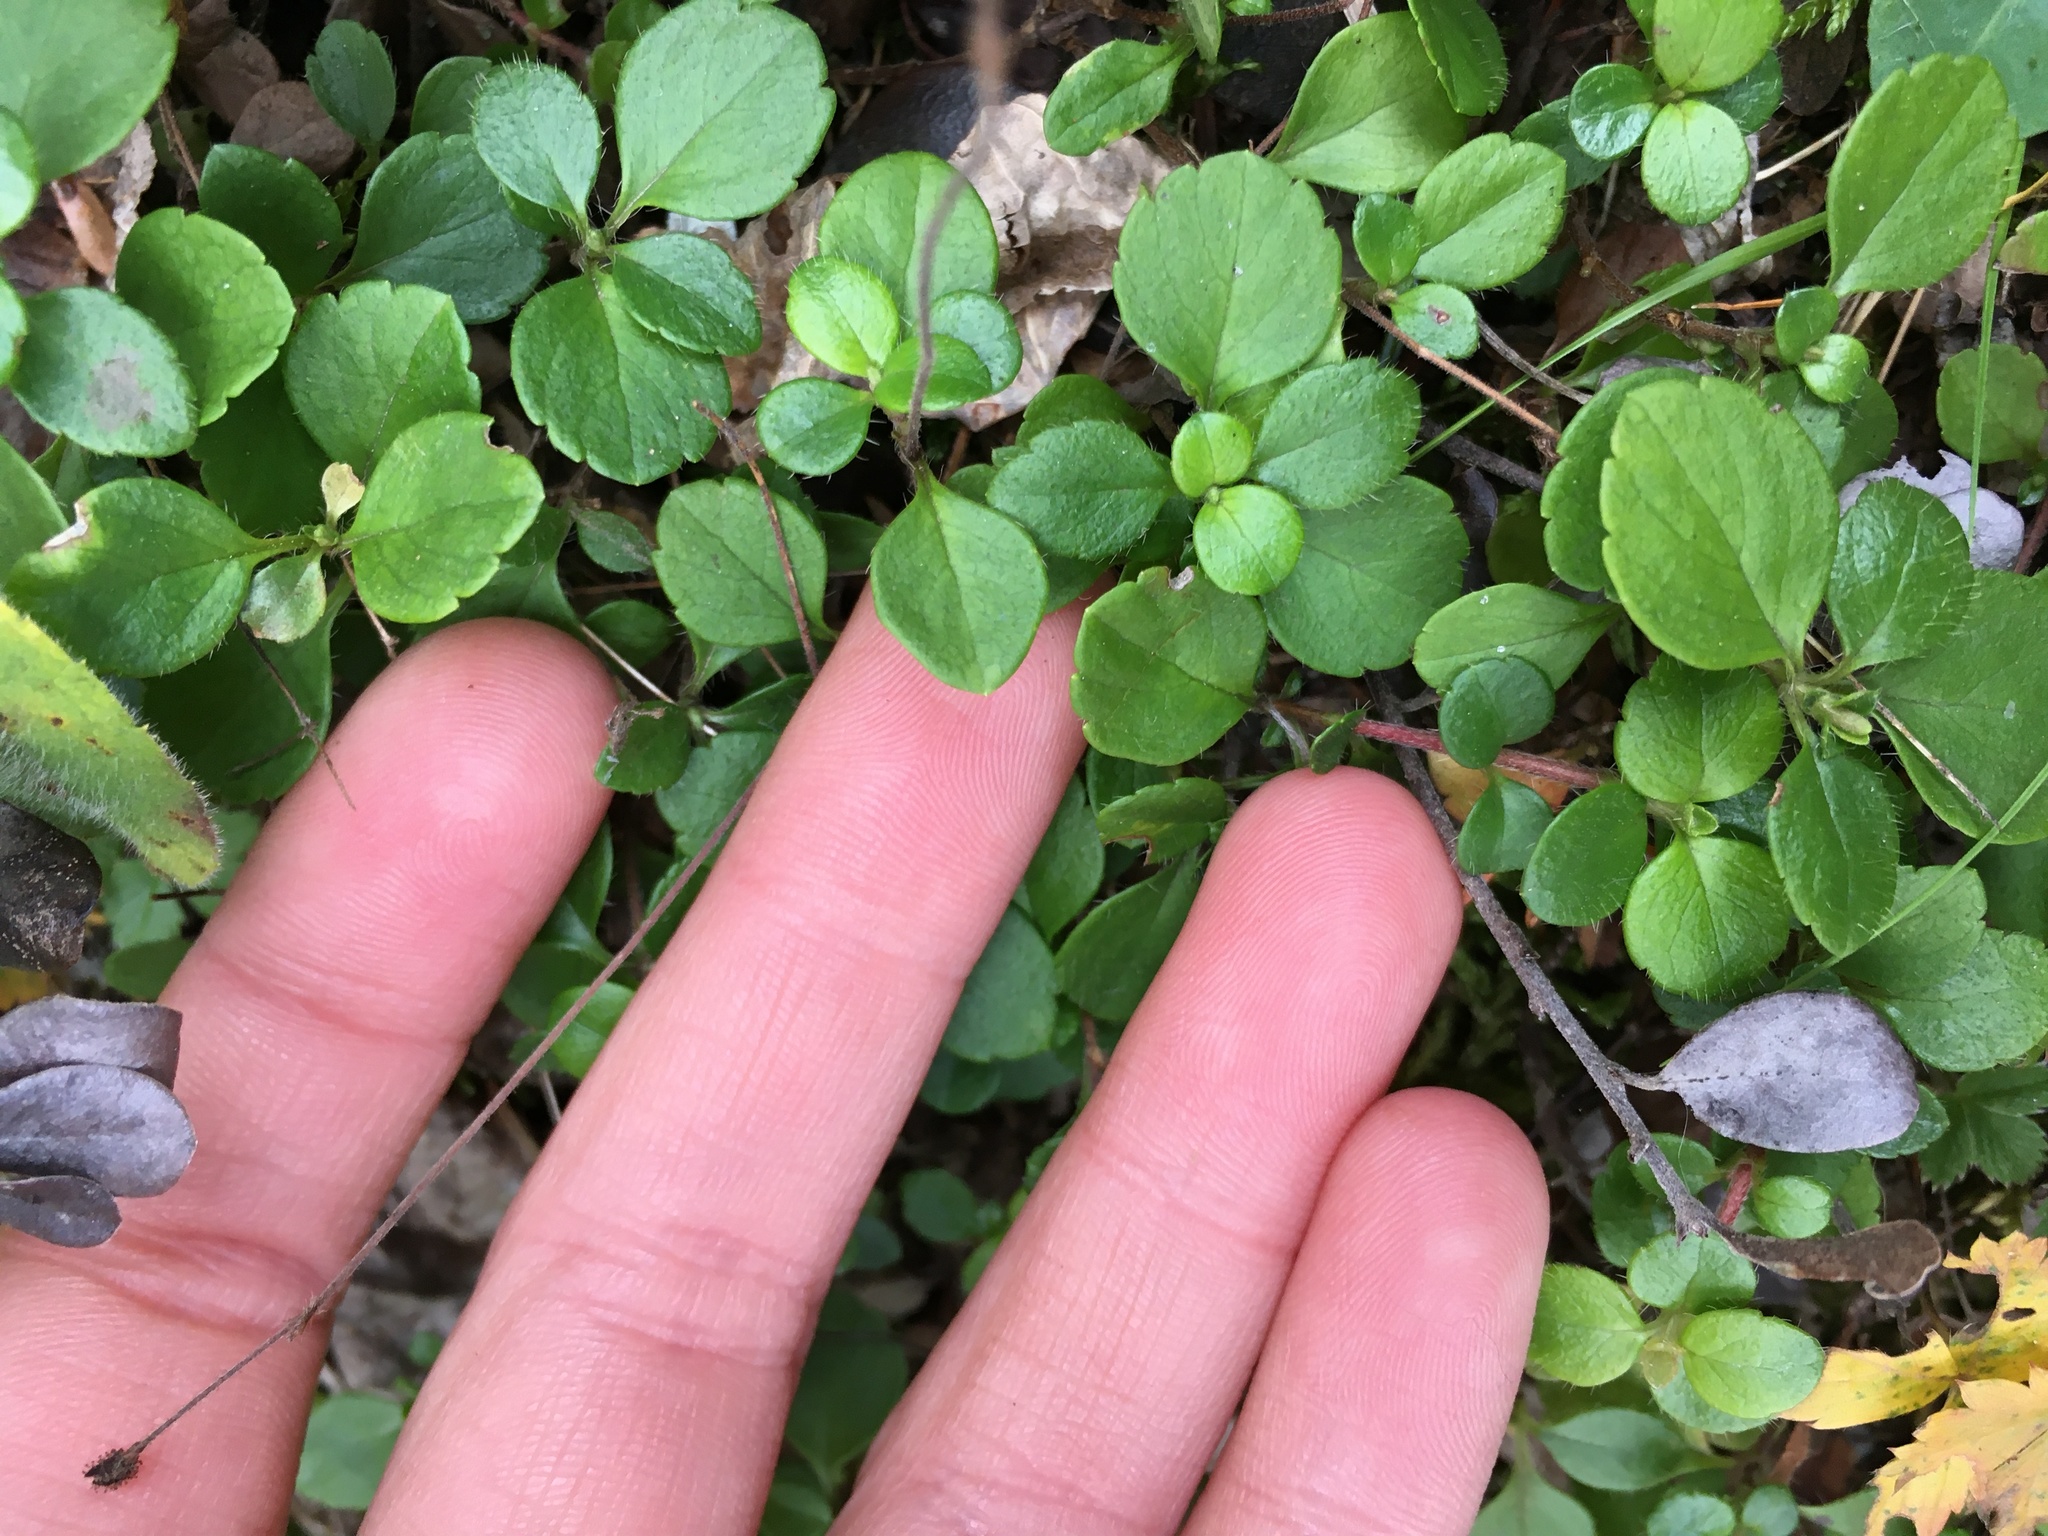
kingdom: Plantae
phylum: Tracheophyta
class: Magnoliopsida
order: Dipsacales
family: Caprifoliaceae
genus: Linnaea
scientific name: Linnaea borealis
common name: Twinflower
